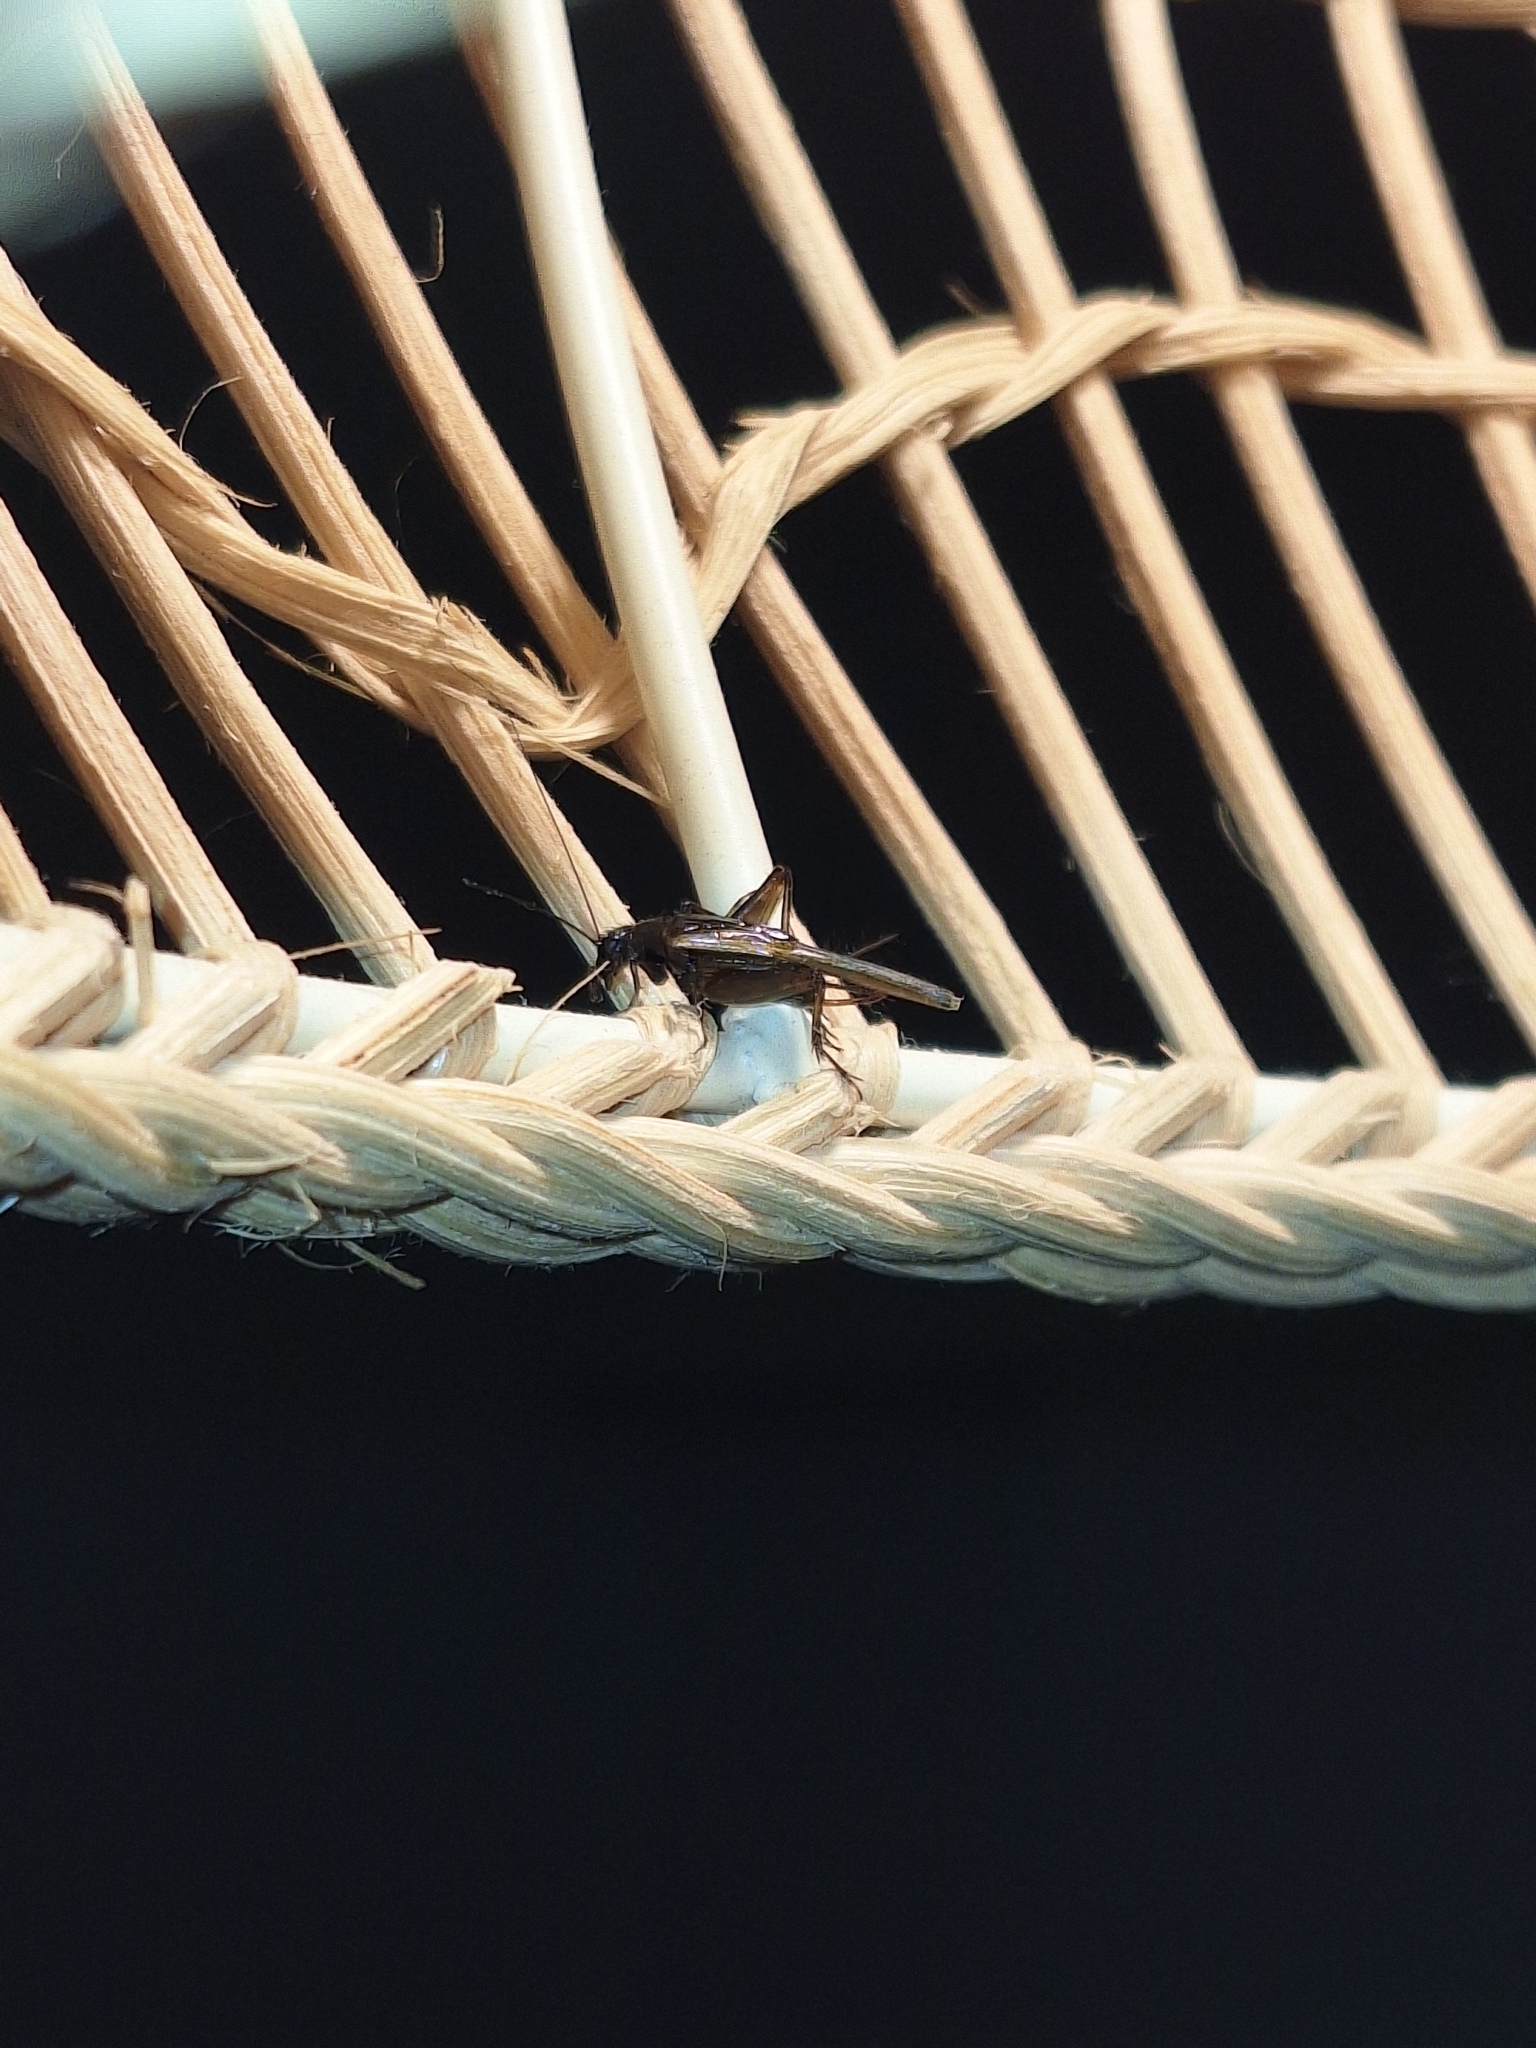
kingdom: Animalia
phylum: Arthropoda
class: Insecta
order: Orthoptera
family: Trigonidiidae
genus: Pteronemobius
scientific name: Pteronemobius truncatus
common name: Confusing pygmy cricket
